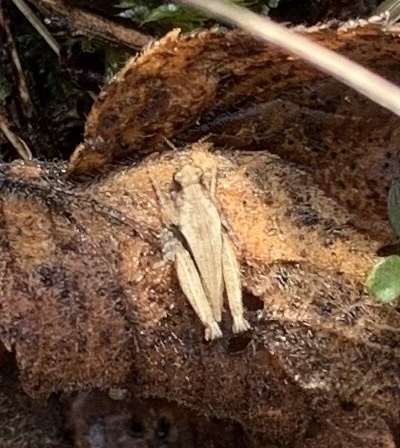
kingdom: Animalia
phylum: Arthropoda
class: Insecta
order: Orthoptera
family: Tetrigidae
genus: Tetrix
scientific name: Tetrix undulata
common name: Common groundhopper
